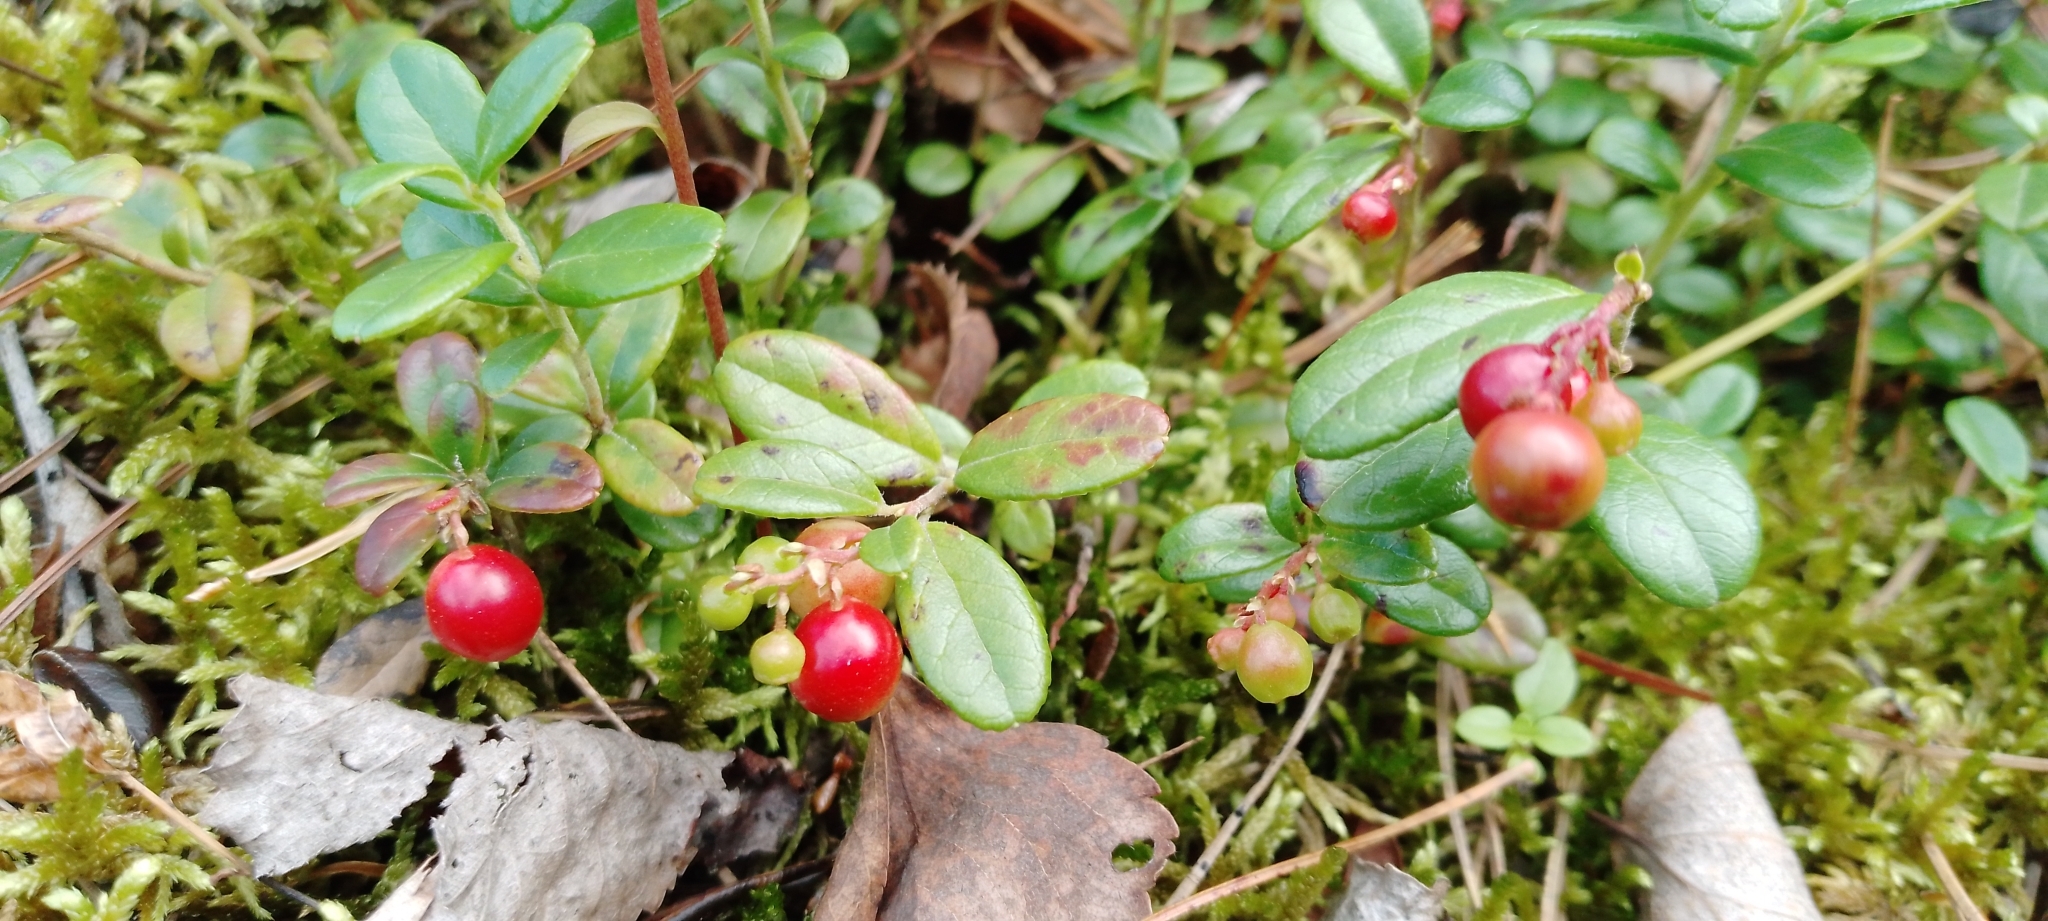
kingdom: Plantae
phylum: Tracheophyta
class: Magnoliopsida
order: Ericales
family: Ericaceae
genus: Vaccinium
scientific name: Vaccinium vitis-idaea
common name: Cowberry
